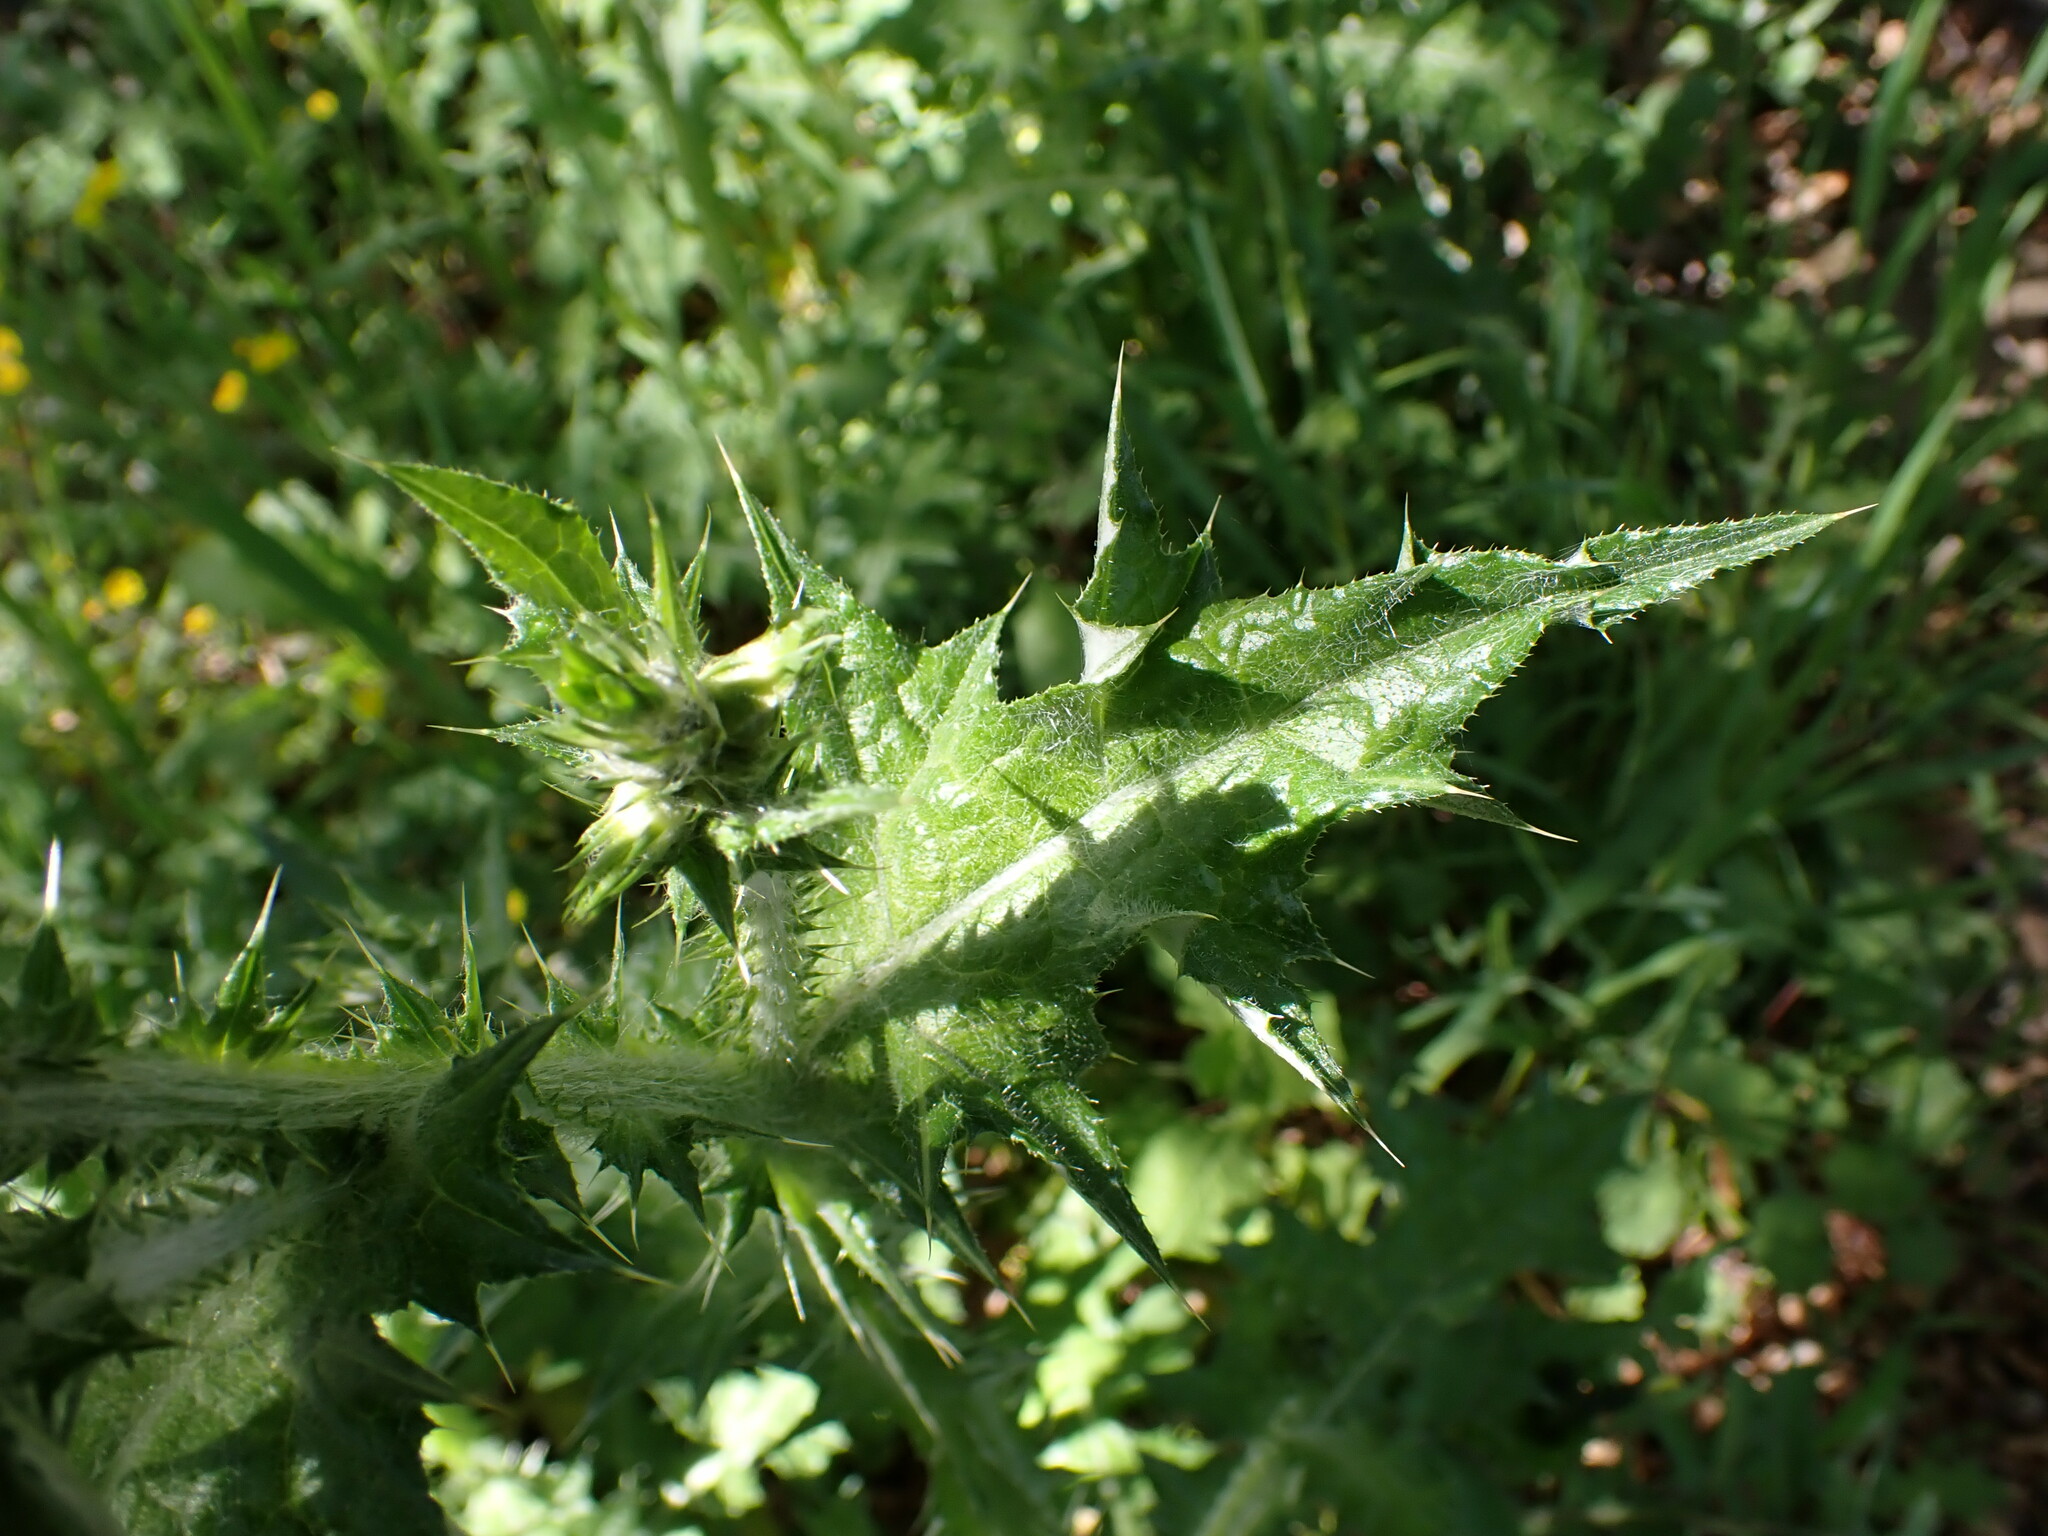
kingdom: Plantae
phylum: Tracheophyta
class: Magnoliopsida
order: Asterales
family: Asteraceae
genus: Carduus
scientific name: Carduus pycnocephalus
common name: Plymouth thistle
